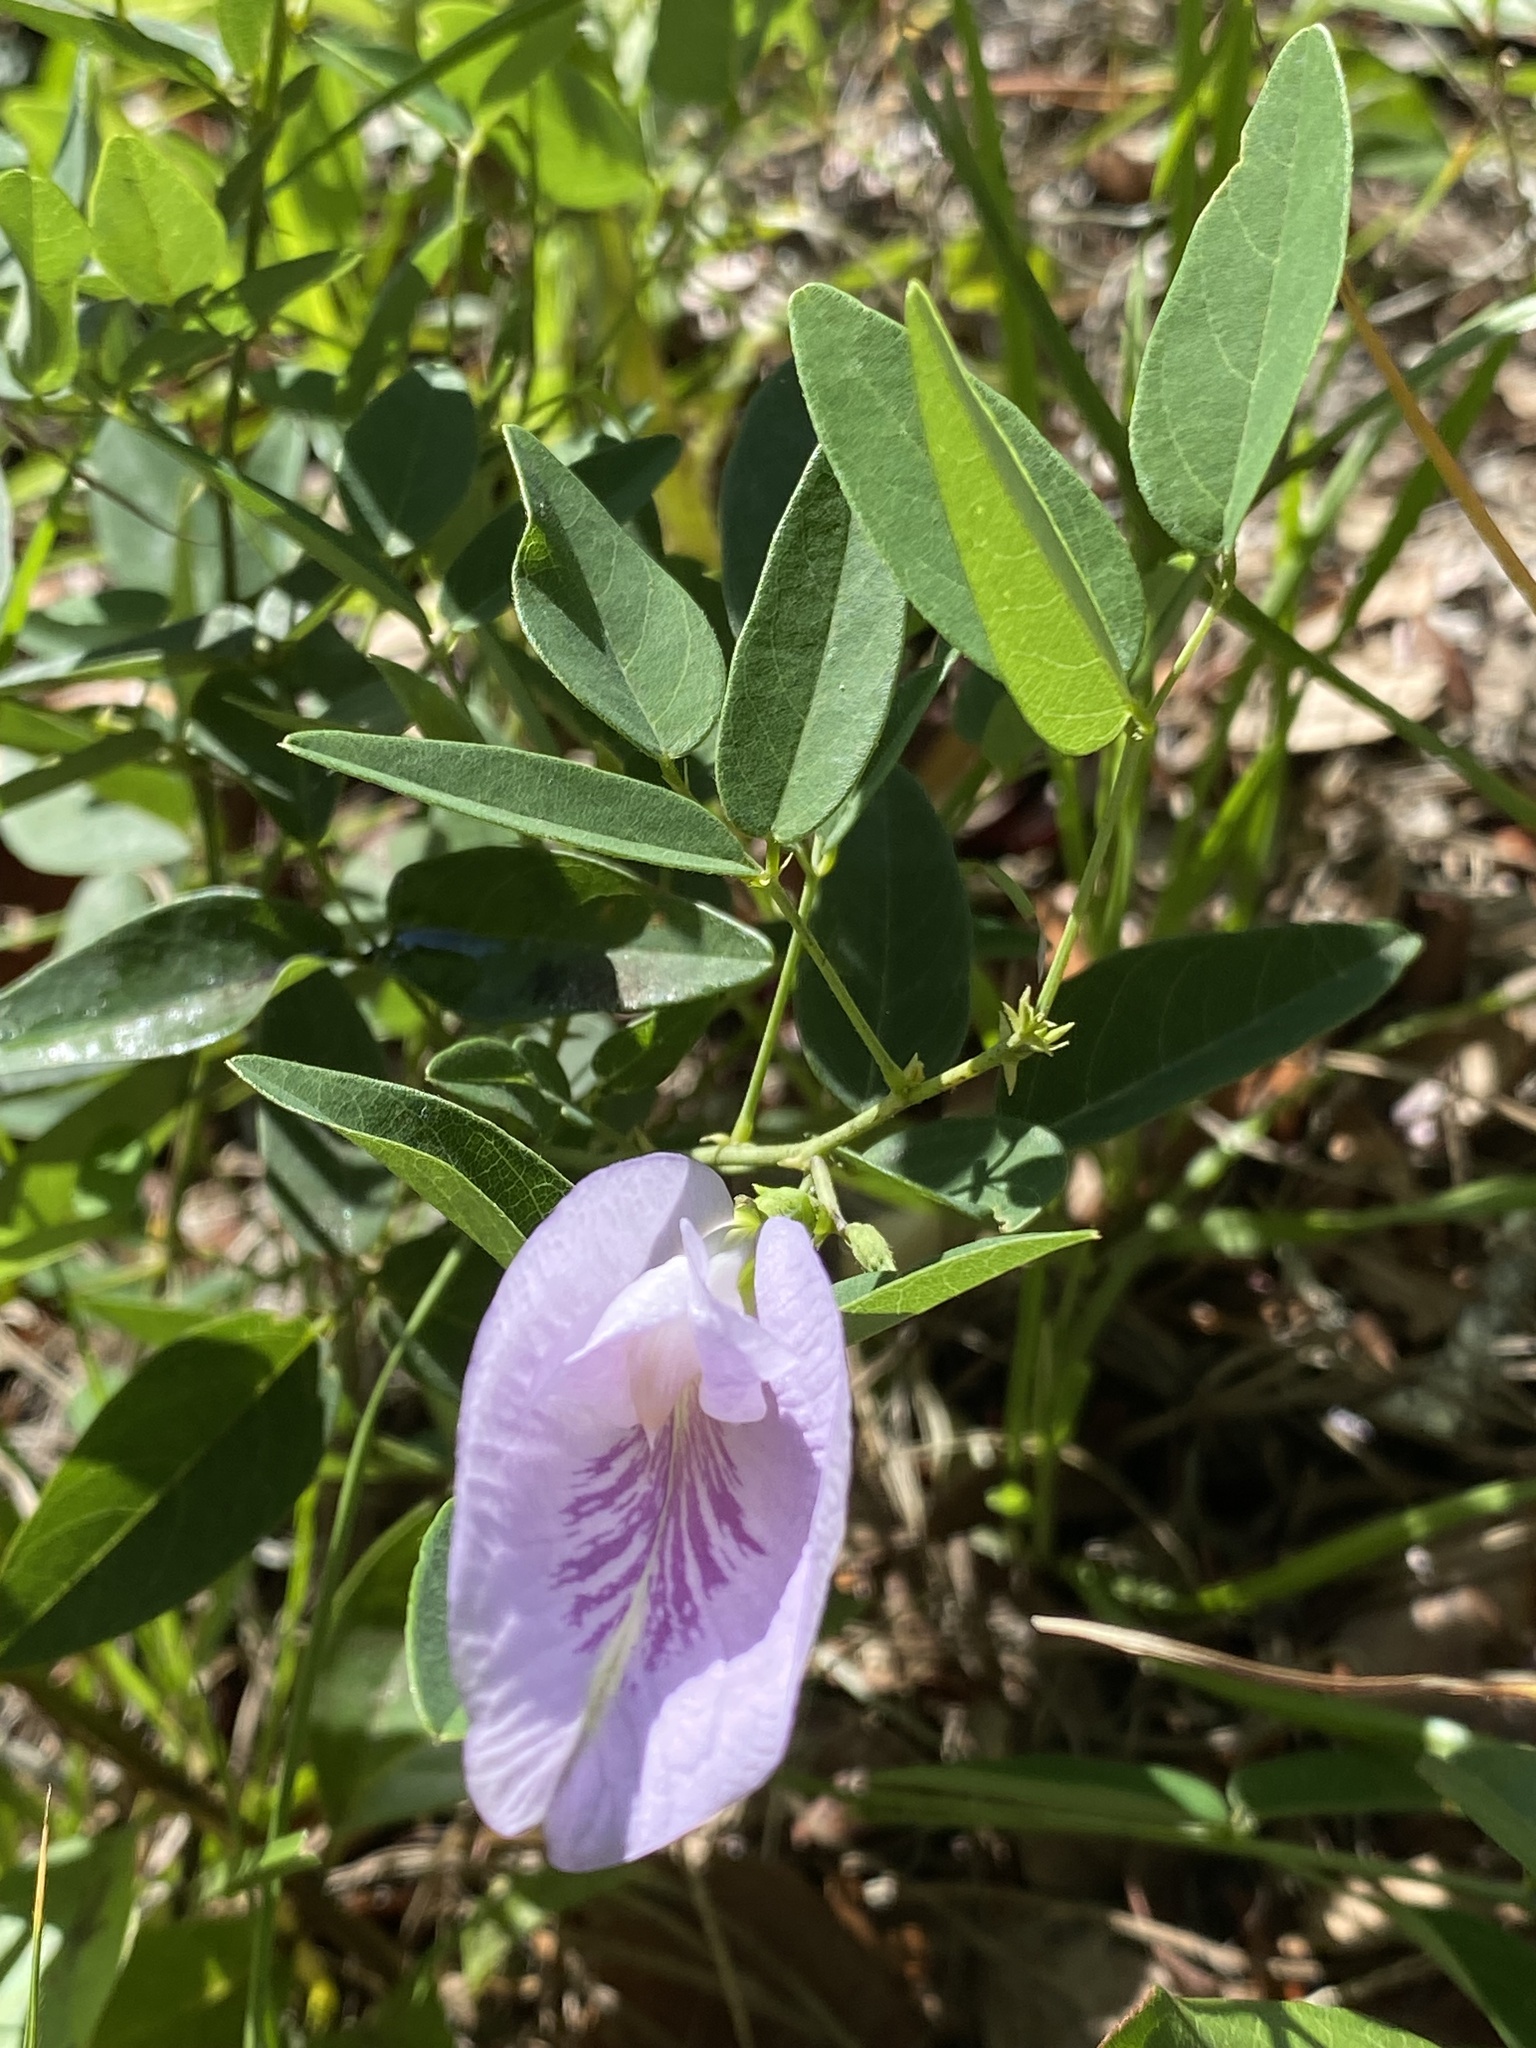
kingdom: Plantae
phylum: Tracheophyta
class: Magnoliopsida
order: Fabales
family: Fabaceae
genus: Clitoria
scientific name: Clitoria mariana
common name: Butterfly-pea
